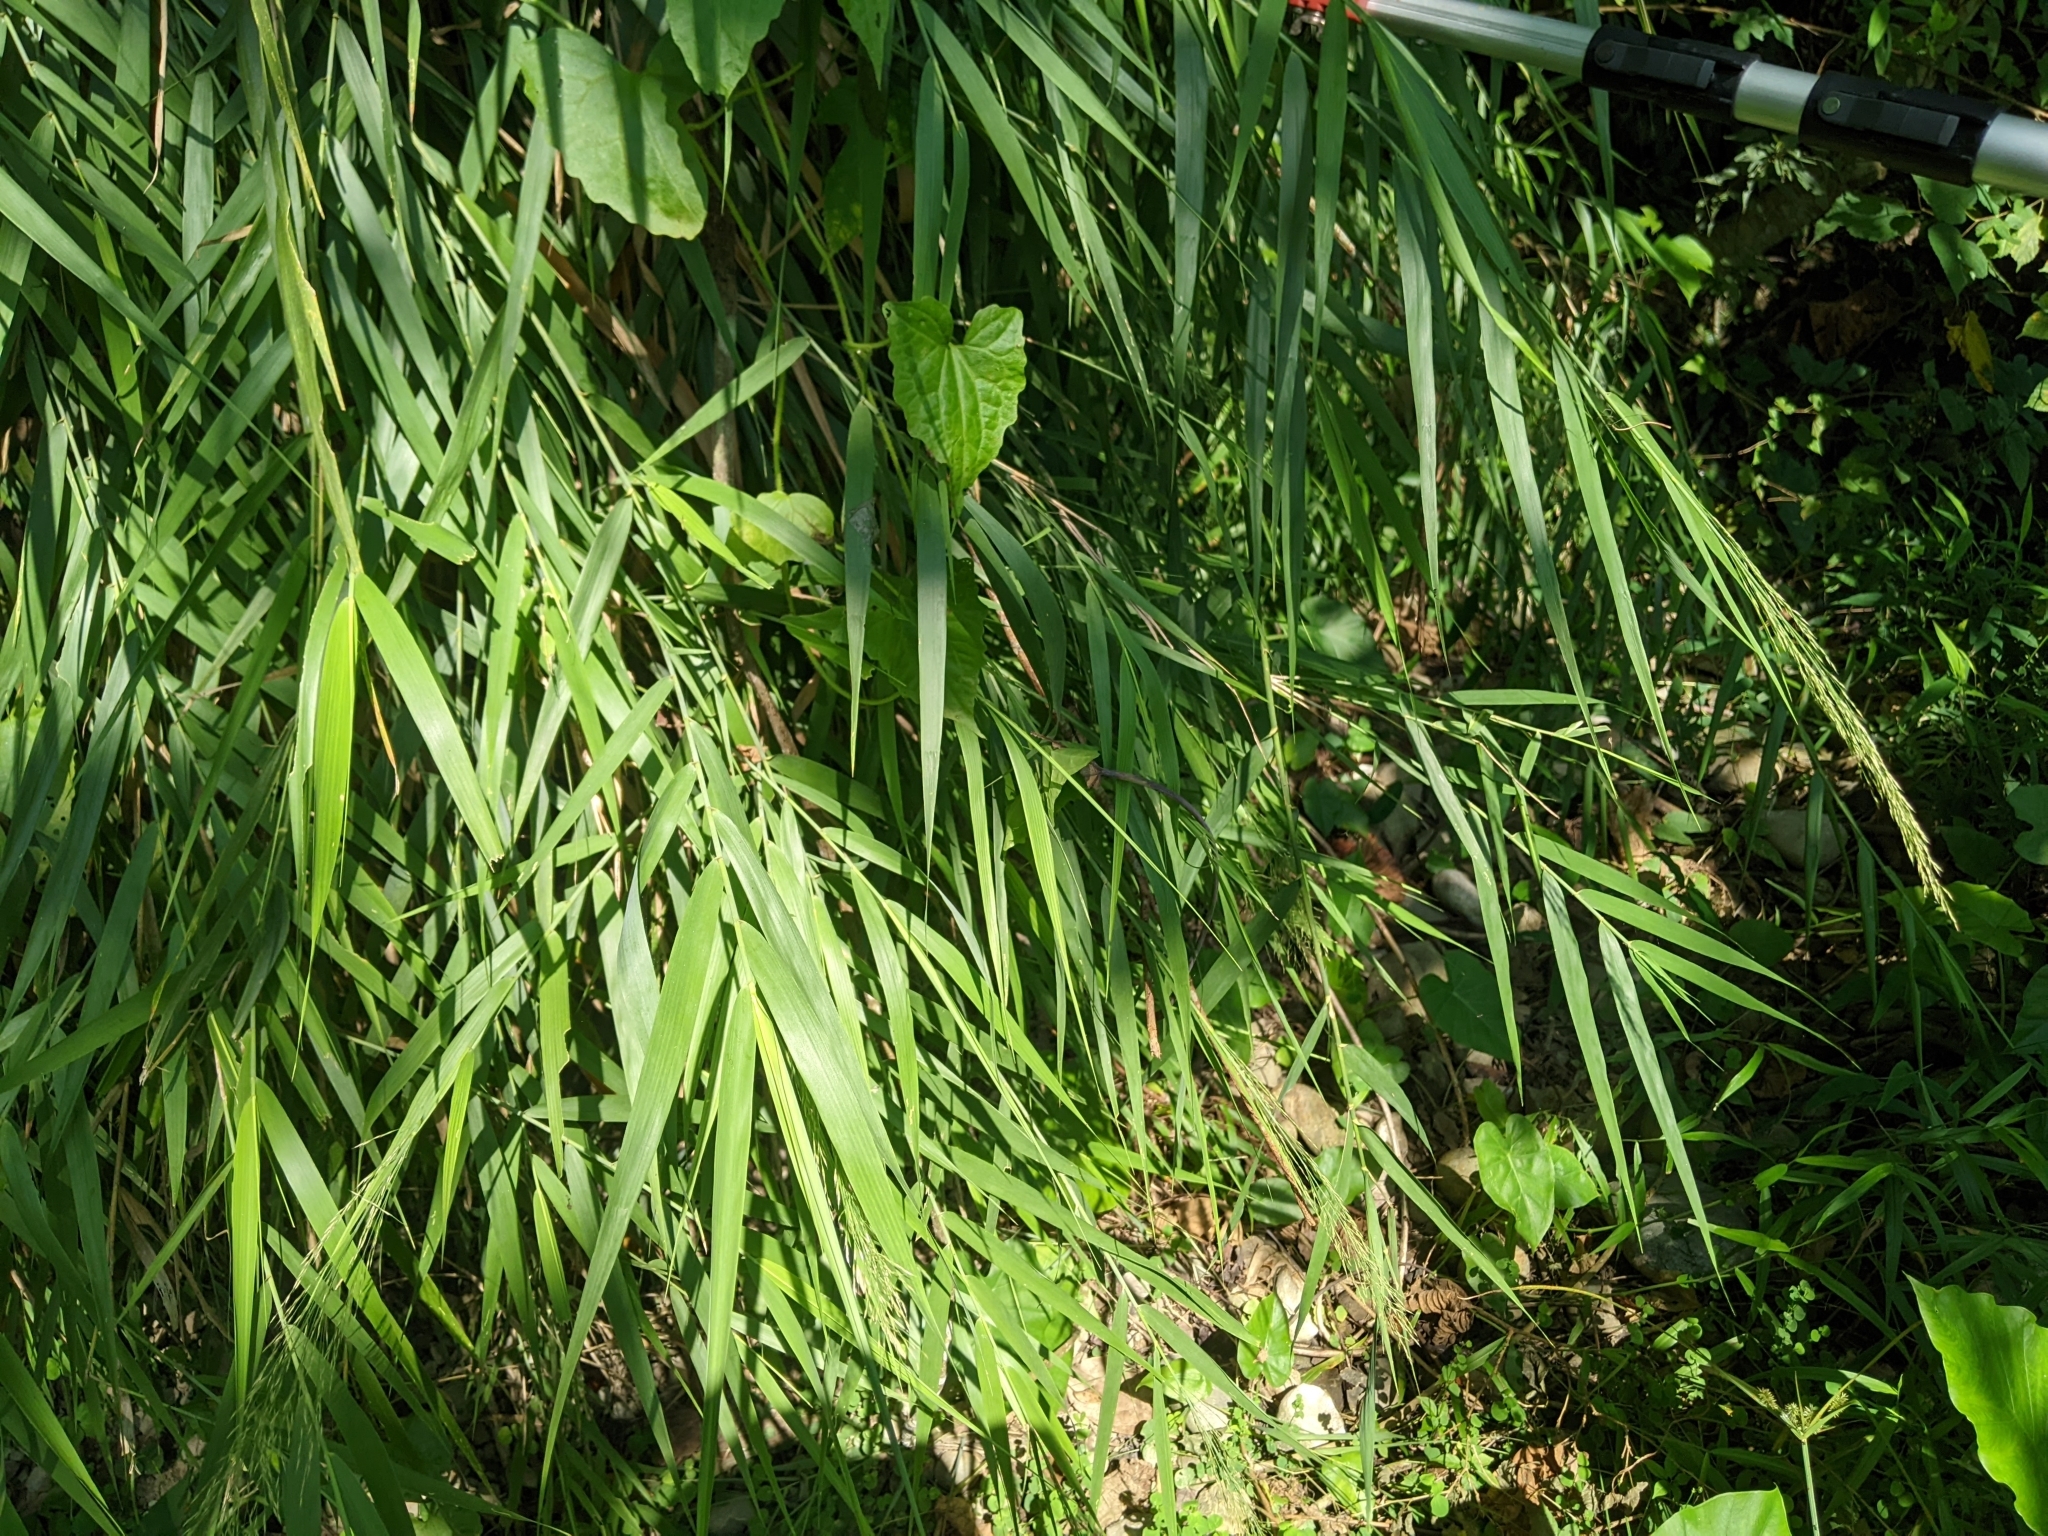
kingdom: Plantae
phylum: Tracheophyta
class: Liliopsida
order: Poales
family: Poaceae
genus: Arundo
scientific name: Arundo formosana
